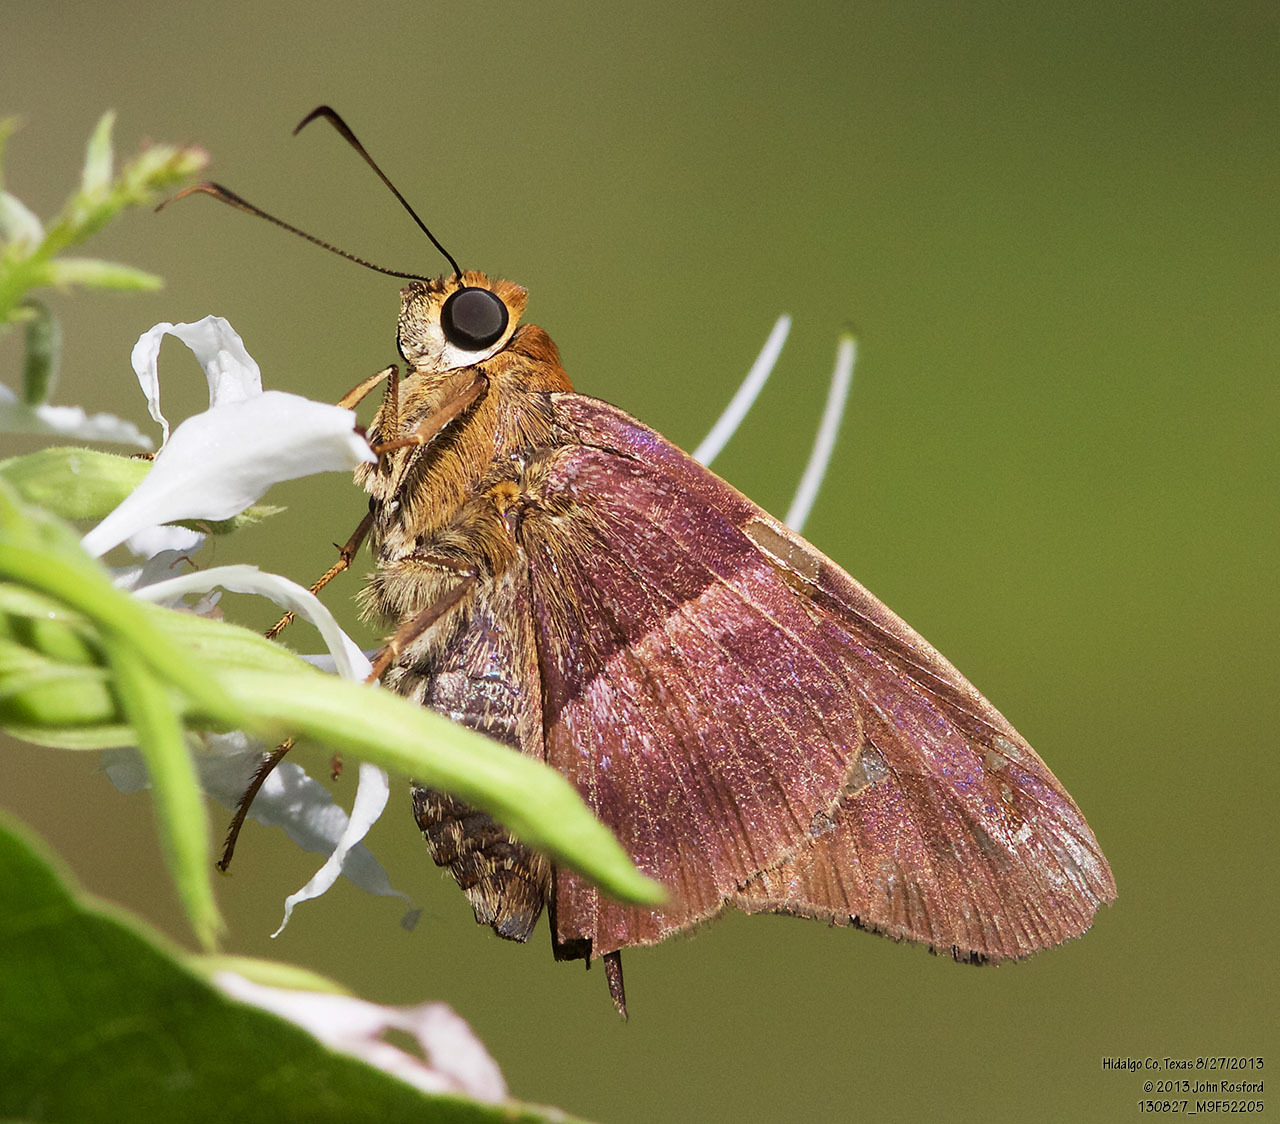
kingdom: Animalia
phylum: Arthropoda
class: Insecta
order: Lepidoptera
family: Hesperiidae
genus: Aguna
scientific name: Aguna asander
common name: Gold-spotted aguna
